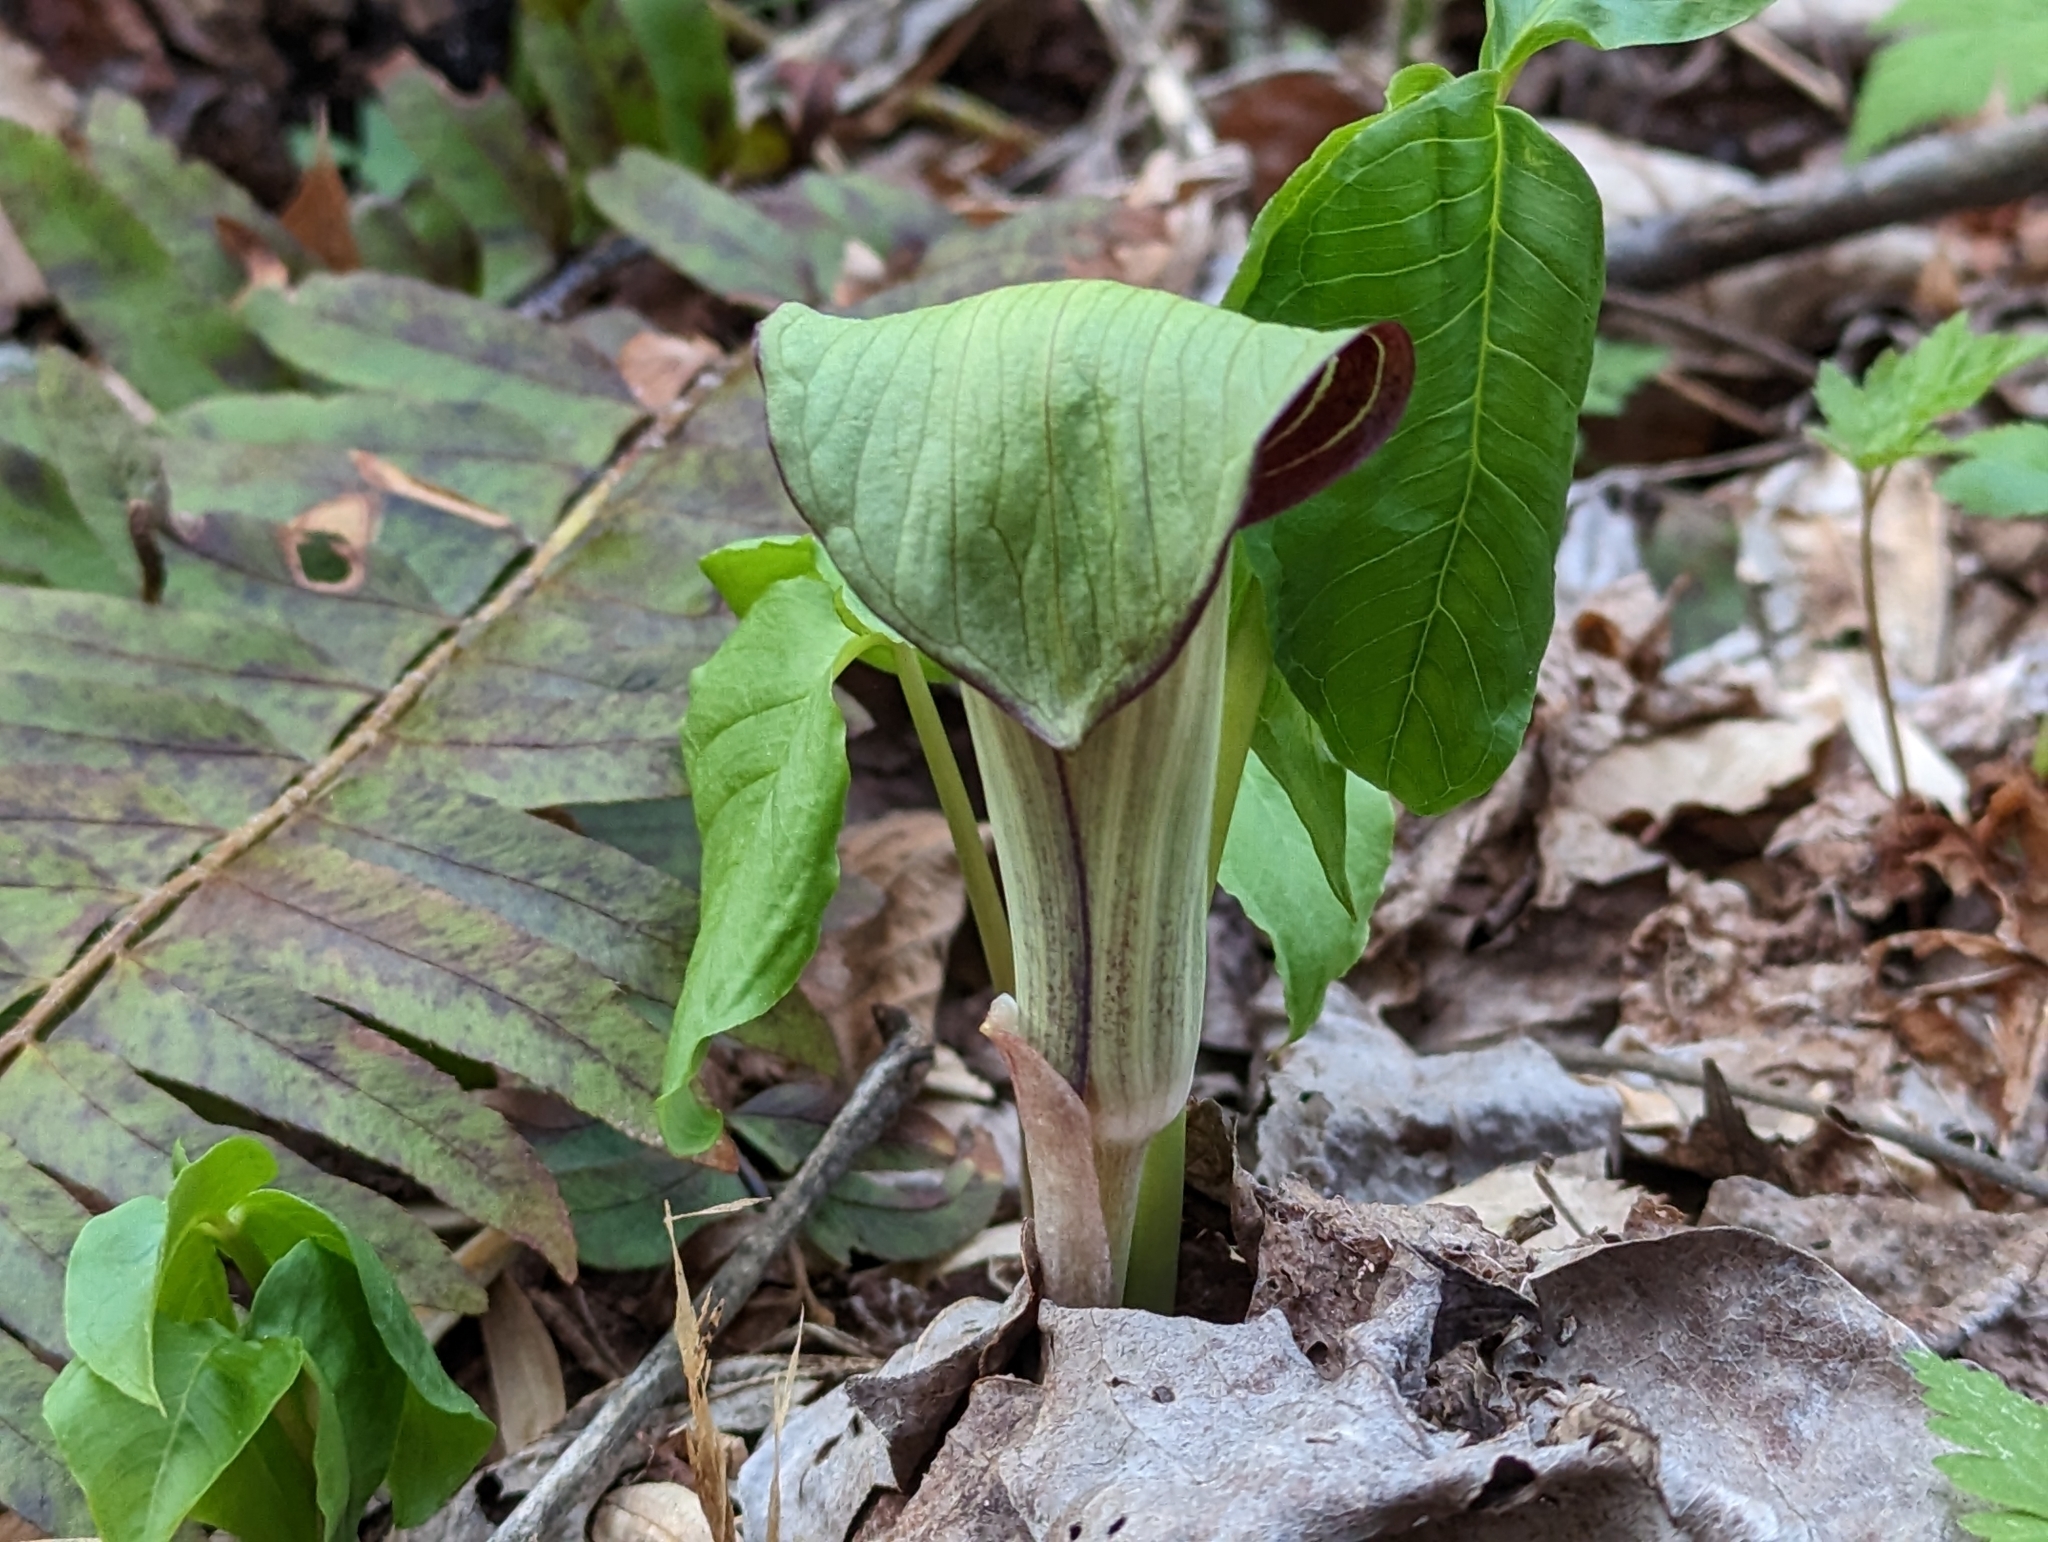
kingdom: Plantae
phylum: Tracheophyta
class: Liliopsida
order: Alismatales
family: Araceae
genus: Arisaema
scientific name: Arisaema triphyllum
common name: Jack-in-the-pulpit
